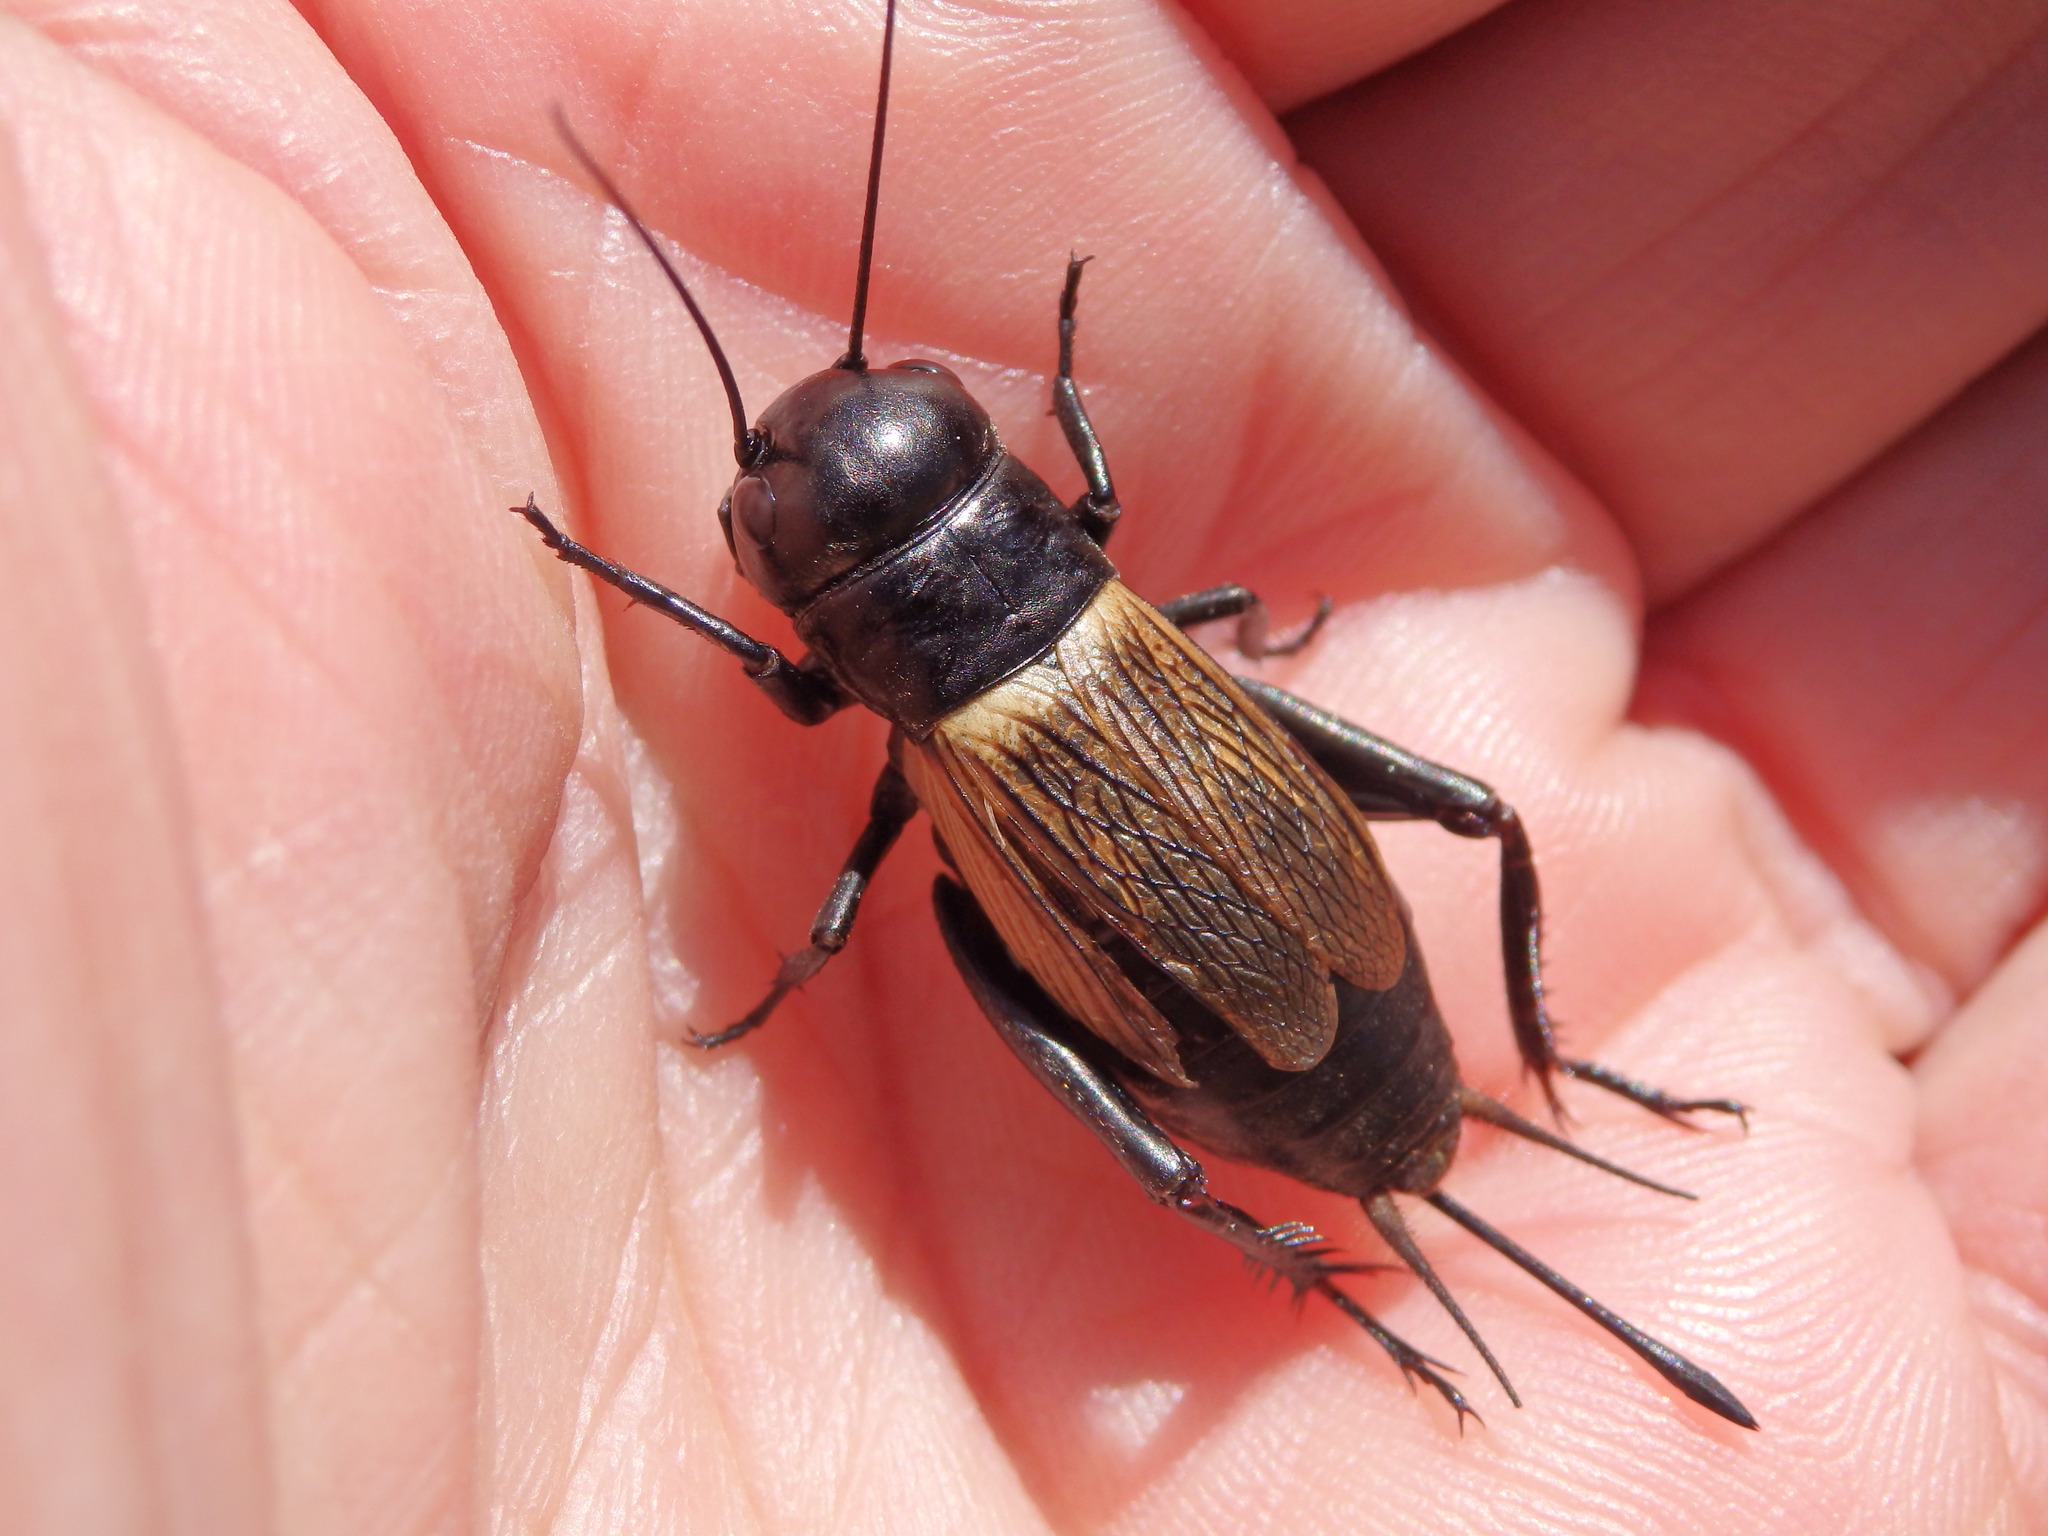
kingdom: Animalia
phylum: Arthropoda
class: Insecta
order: Orthoptera
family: Gryllidae
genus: Gryllus
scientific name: Gryllus campestris
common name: Field cricket
